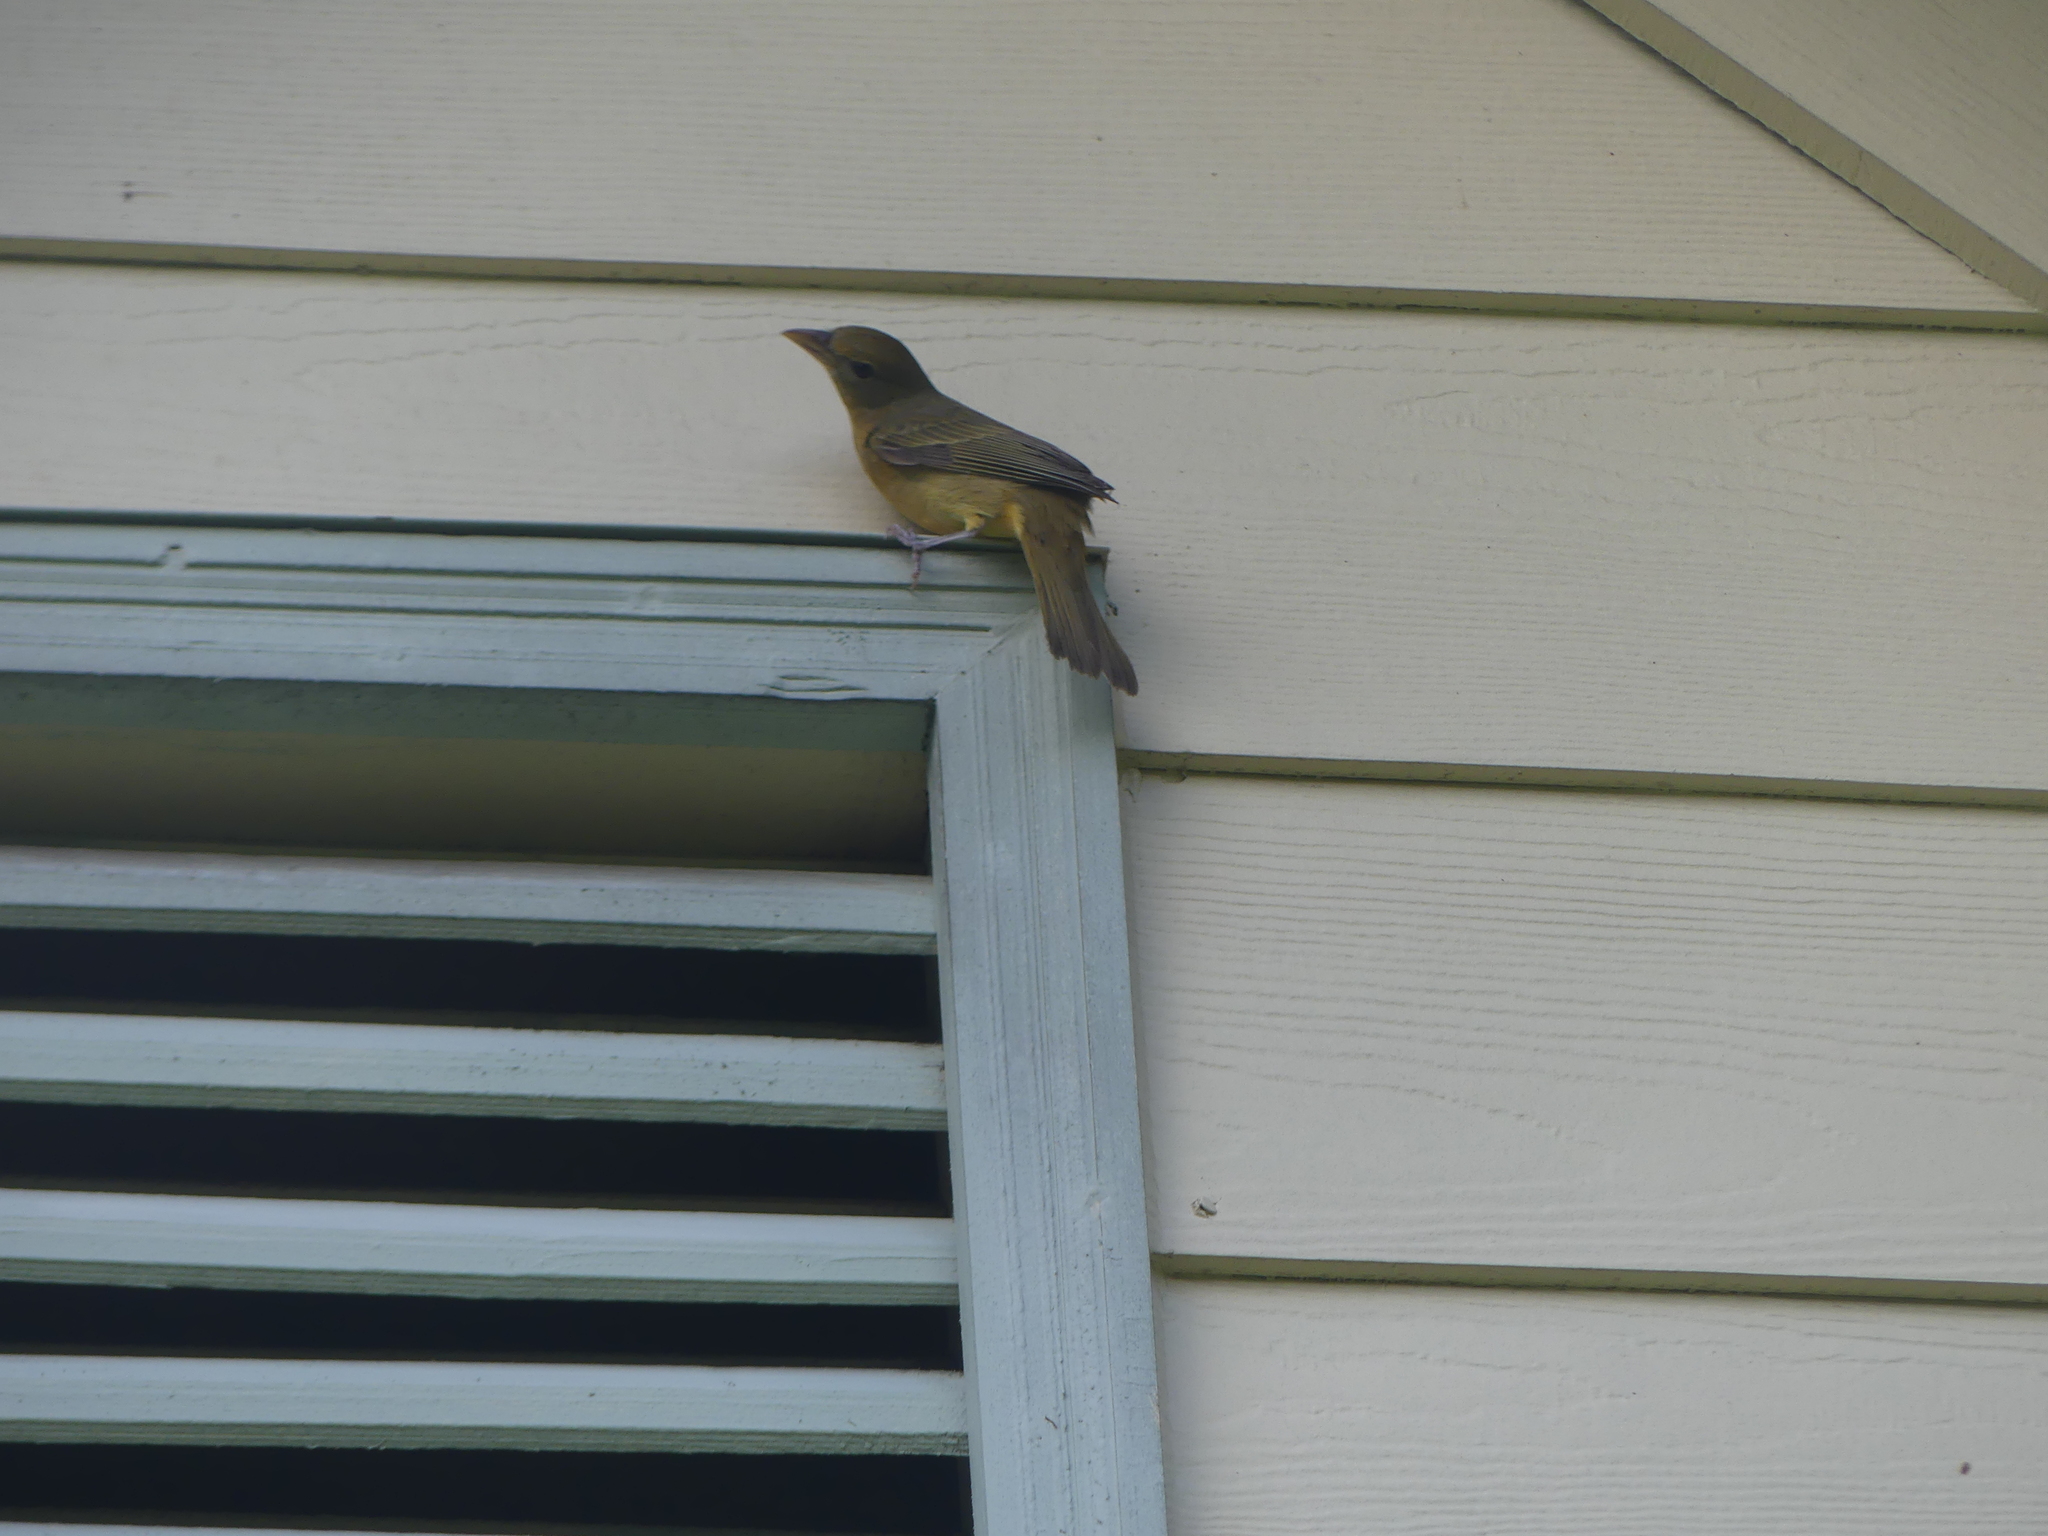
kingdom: Animalia
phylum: Chordata
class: Aves
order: Passeriformes
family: Cardinalidae
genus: Piranga
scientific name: Piranga rubra
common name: Summer tanager
